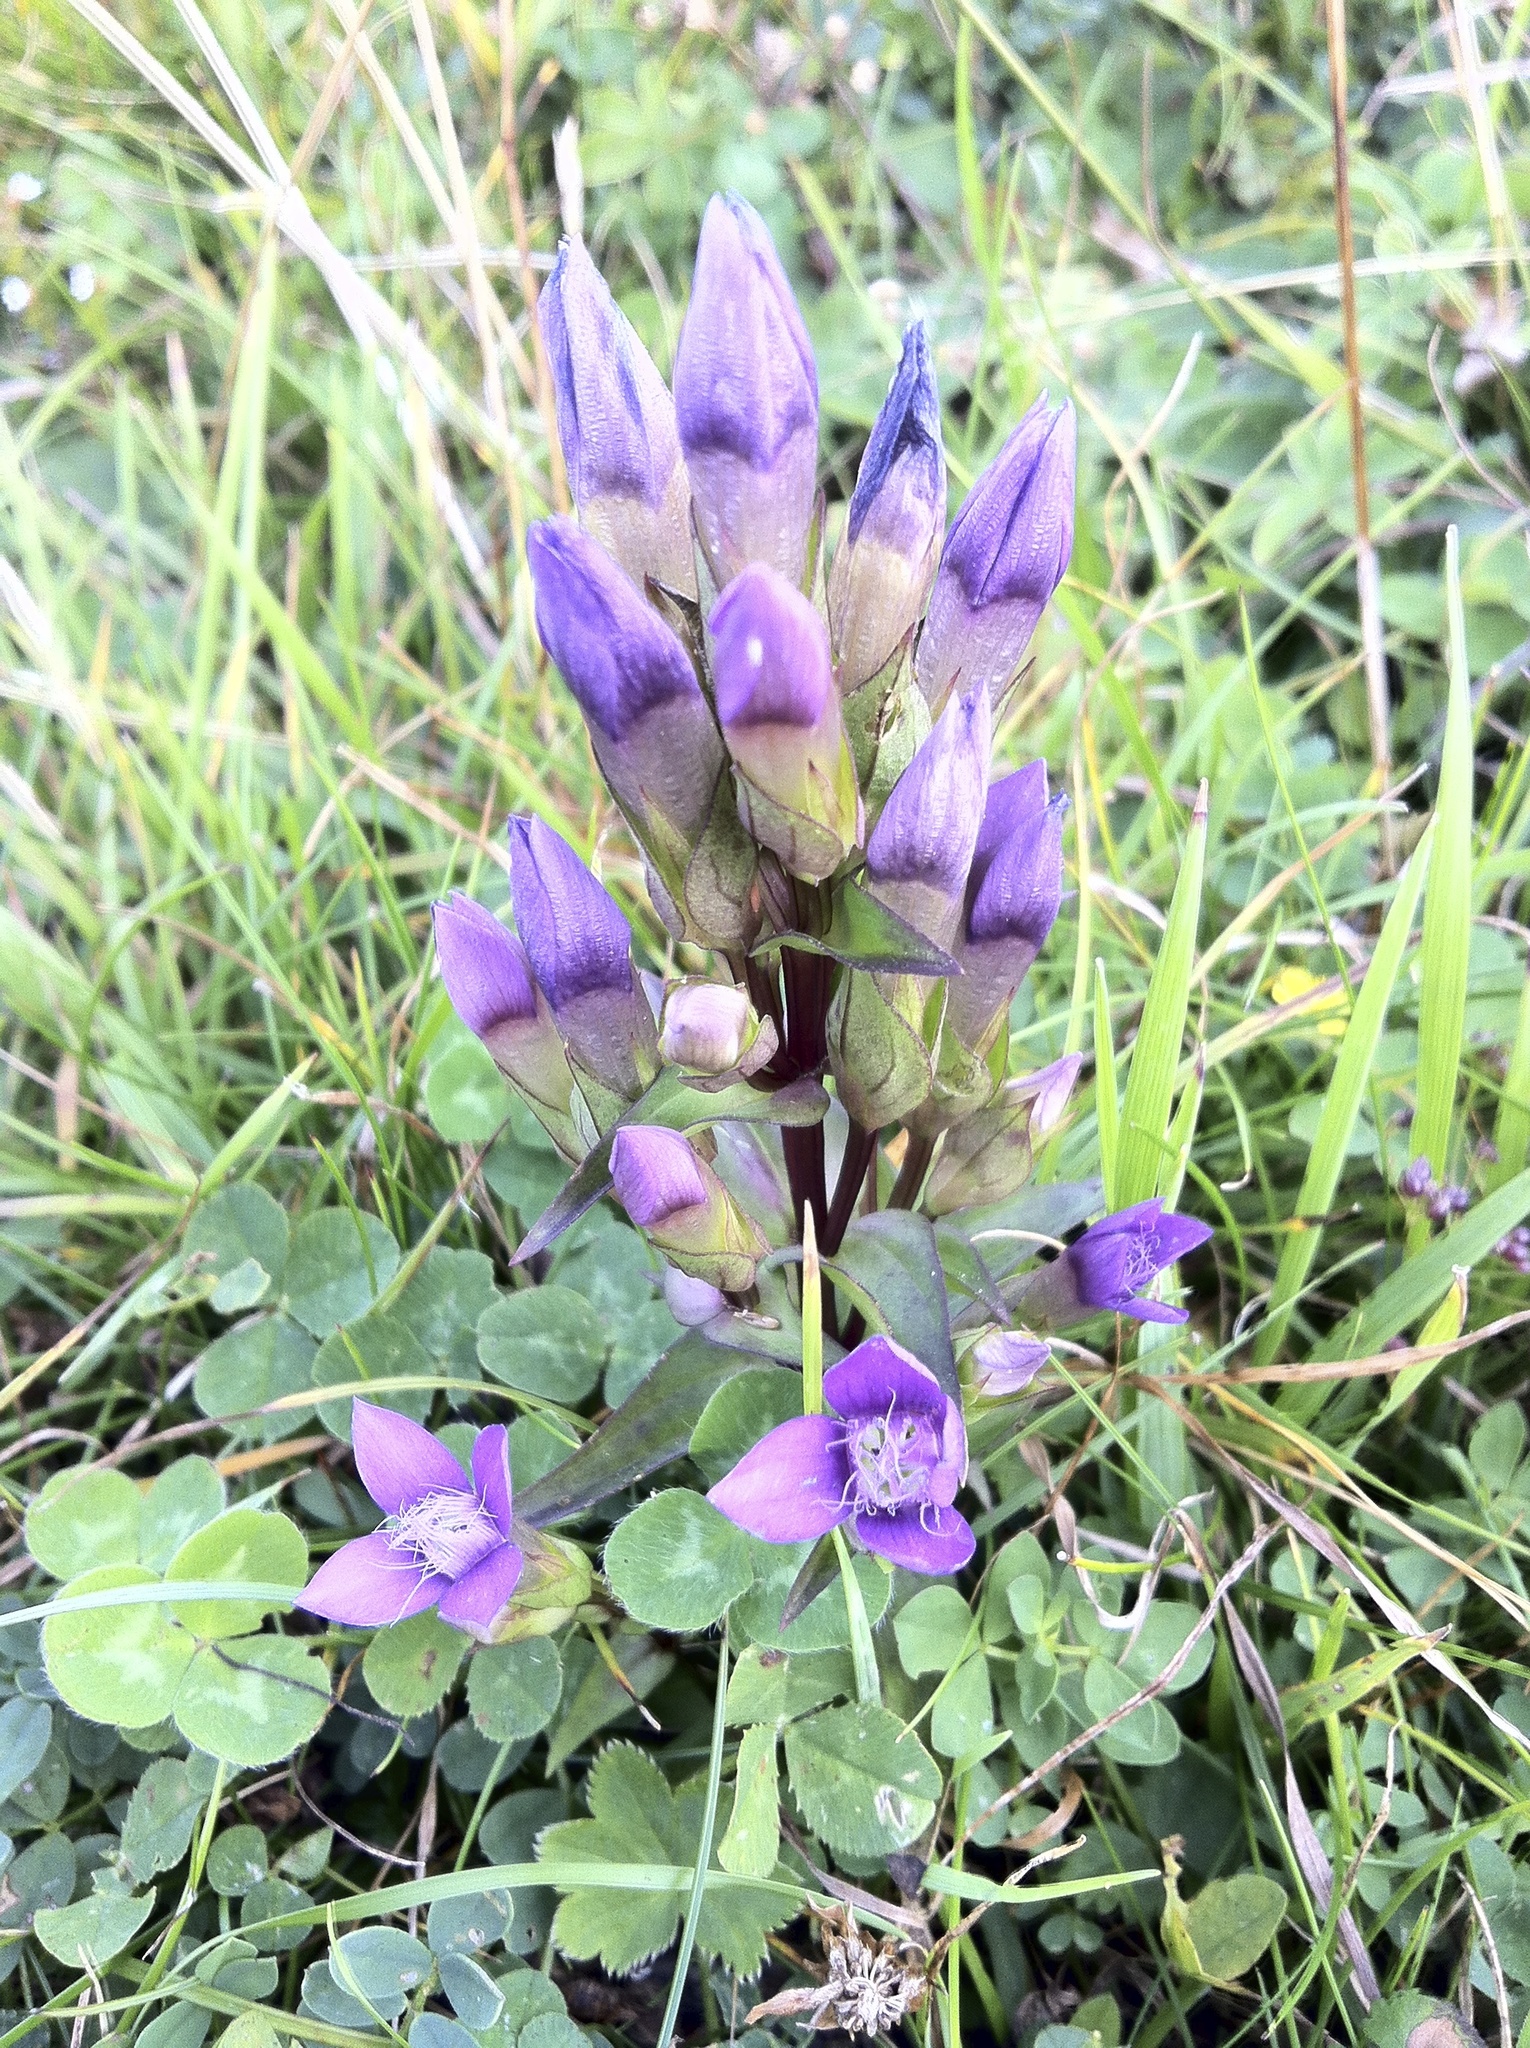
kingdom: Plantae
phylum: Tracheophyta
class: Magnoliopsida
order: Gentianales
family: Gentianaceae
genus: Gentianella
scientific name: Gentianella campestris
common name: Field gentian
